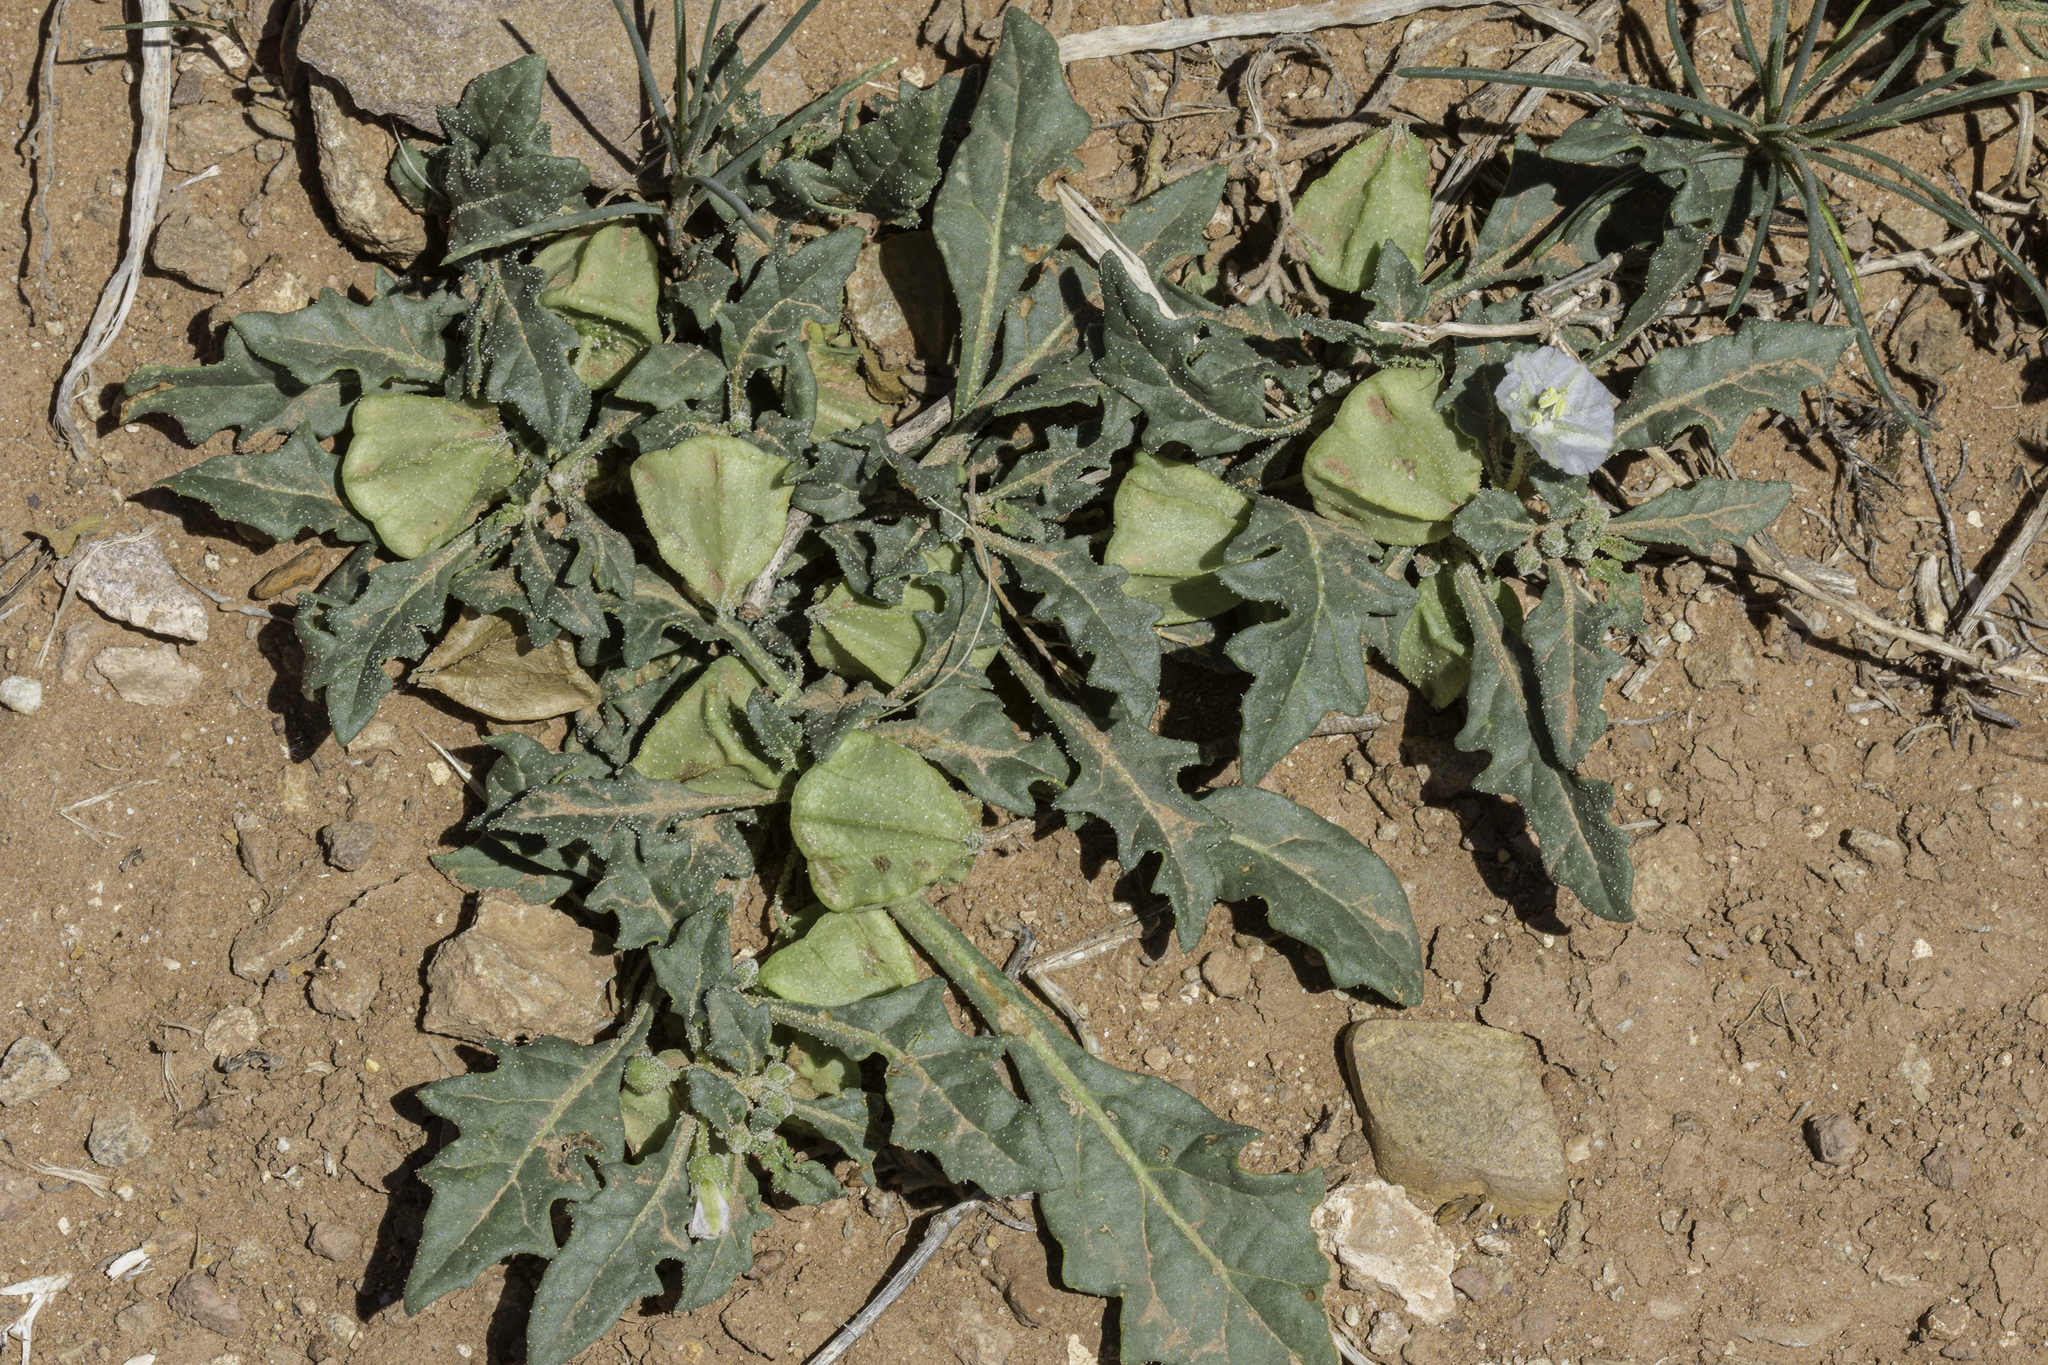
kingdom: Plantae
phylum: Tracheophyta
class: Magnoliopsida
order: Solanales
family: Solanaceae
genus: Quincula
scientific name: Quincula lobata
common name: Purple-ground-cherry
